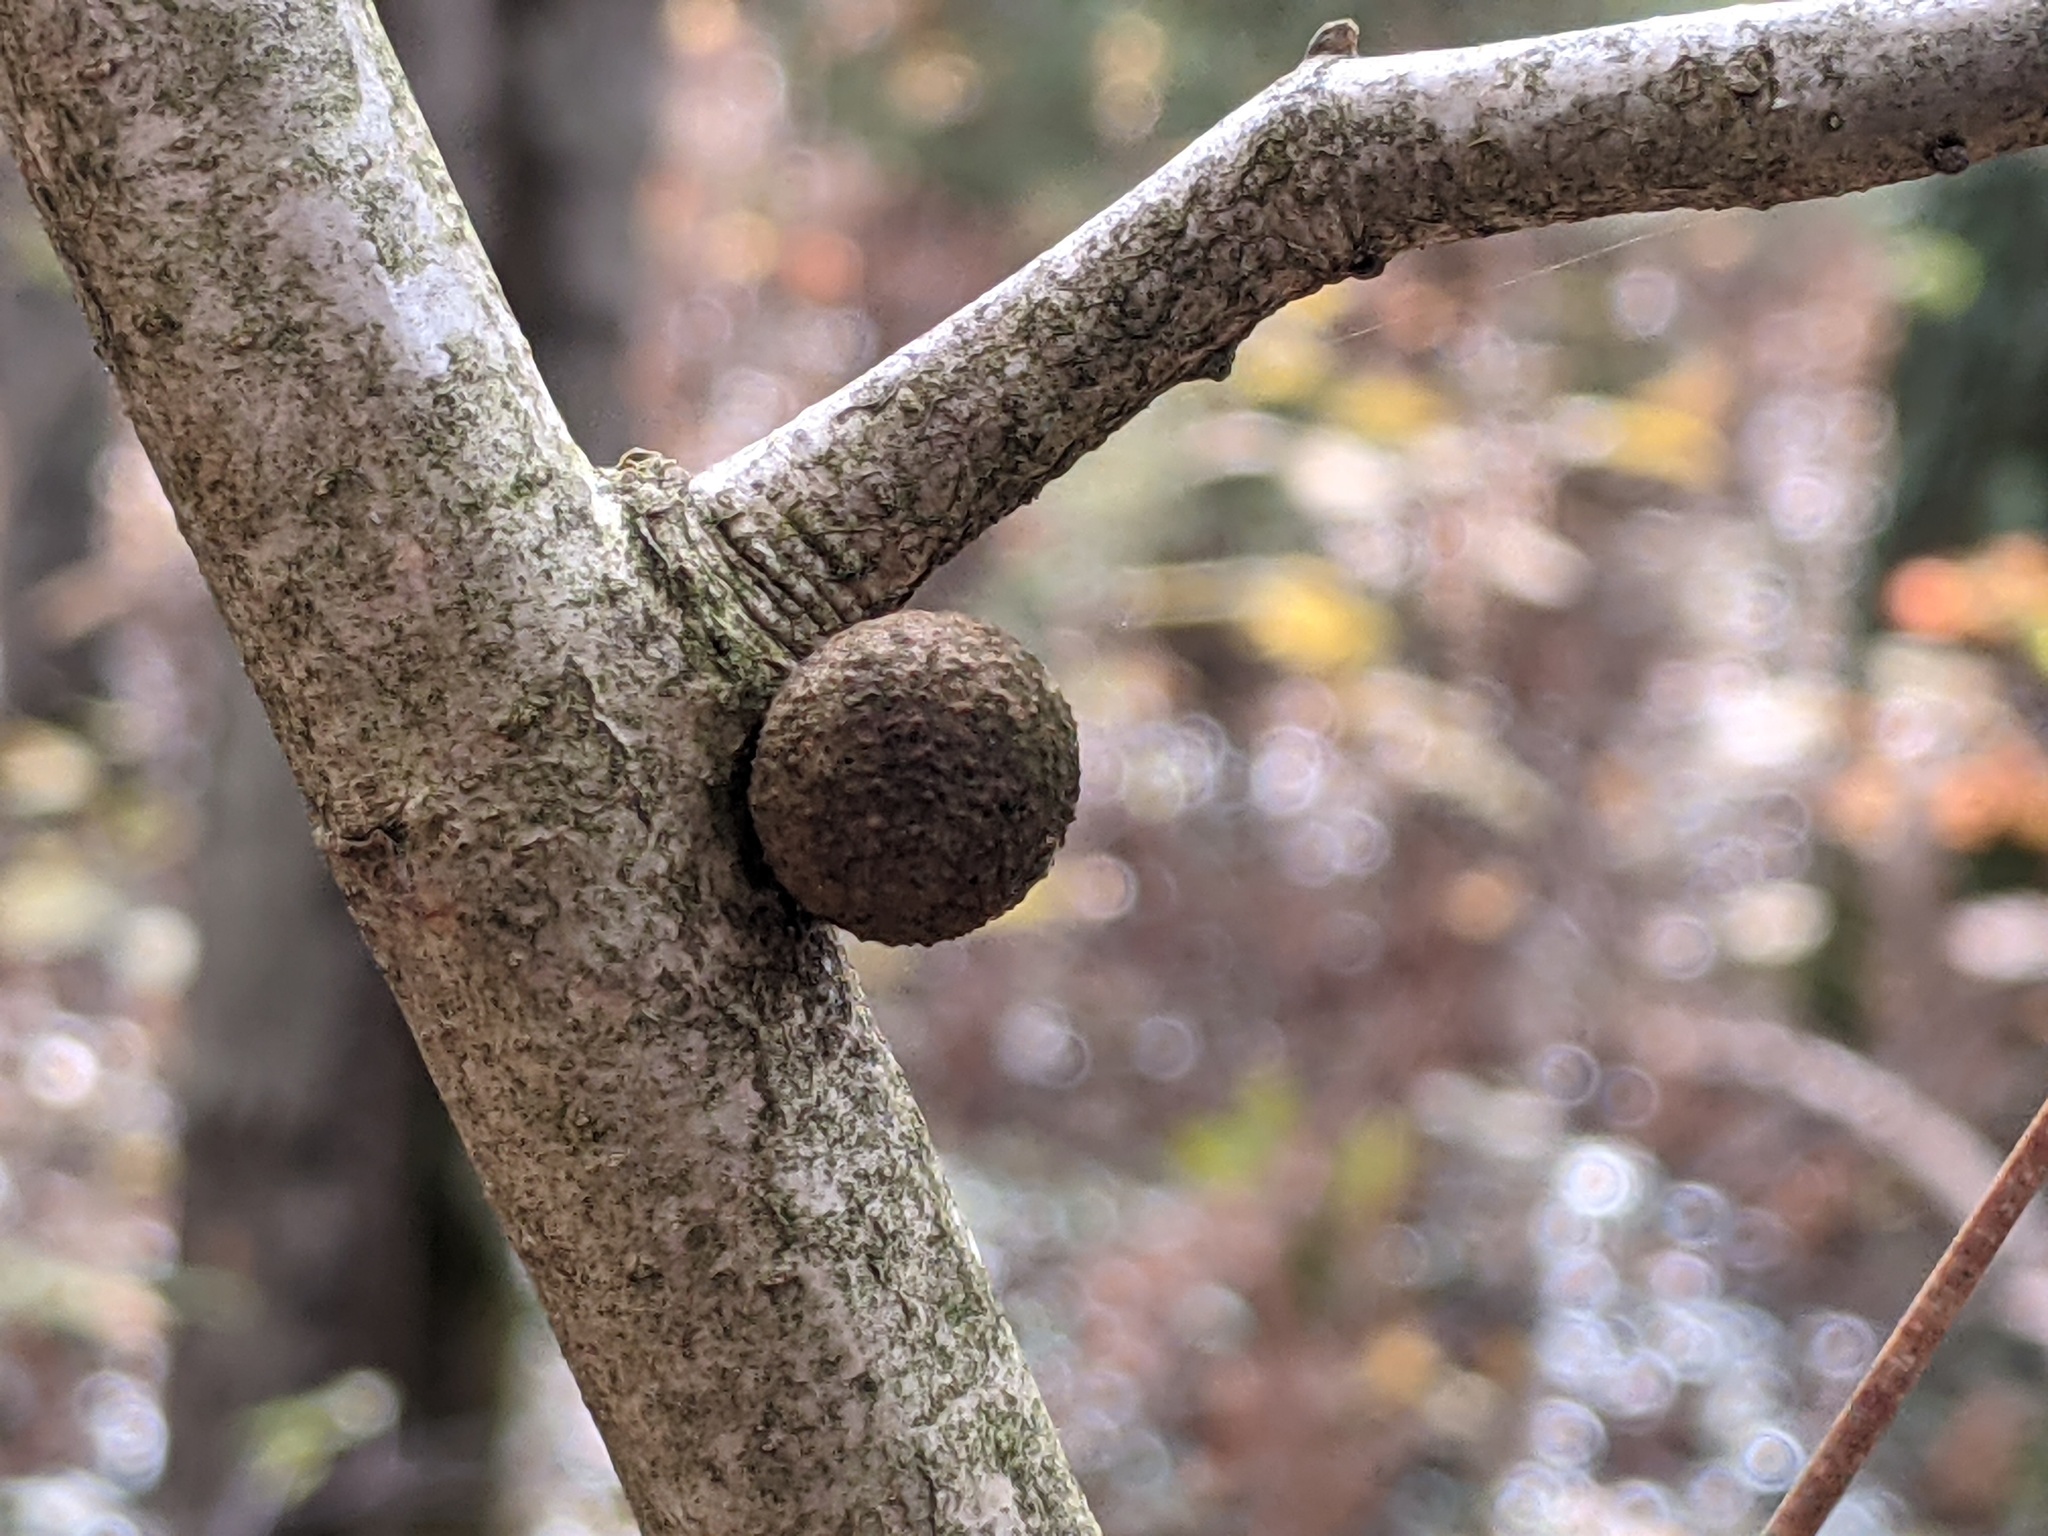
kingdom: Animalia
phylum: Arthropoda
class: Insecta
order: Hymenoptera
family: Cynipidae
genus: Disholcaspis
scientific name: Disholcaspis quercusglobulus
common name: Round bullet gall wasp
